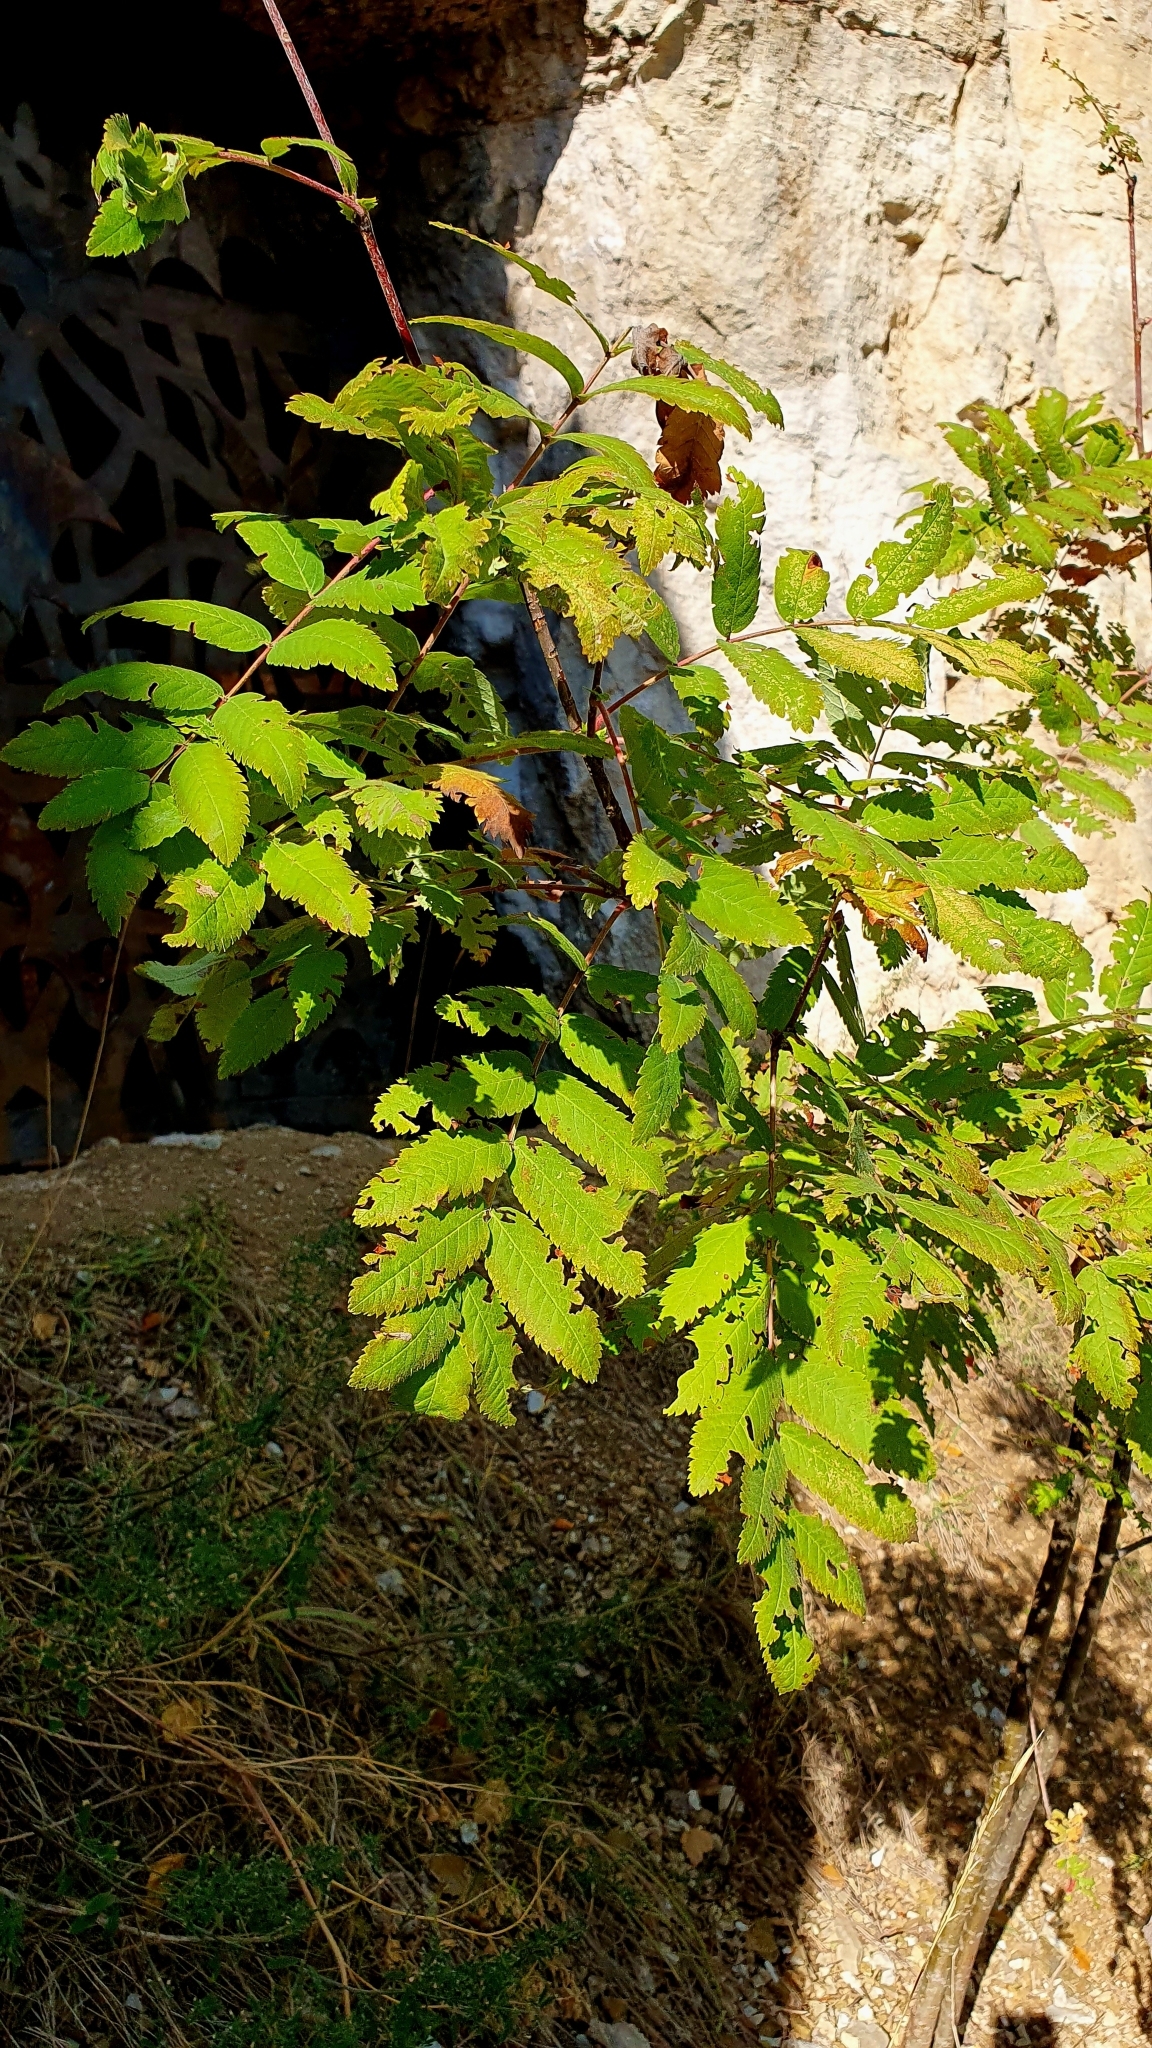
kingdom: Plantae
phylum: Tracheophyta
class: Magnoliopsida
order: Rosales
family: Rosaceae
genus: Sorbus
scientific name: Sorbus aucuparia
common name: Rowan
